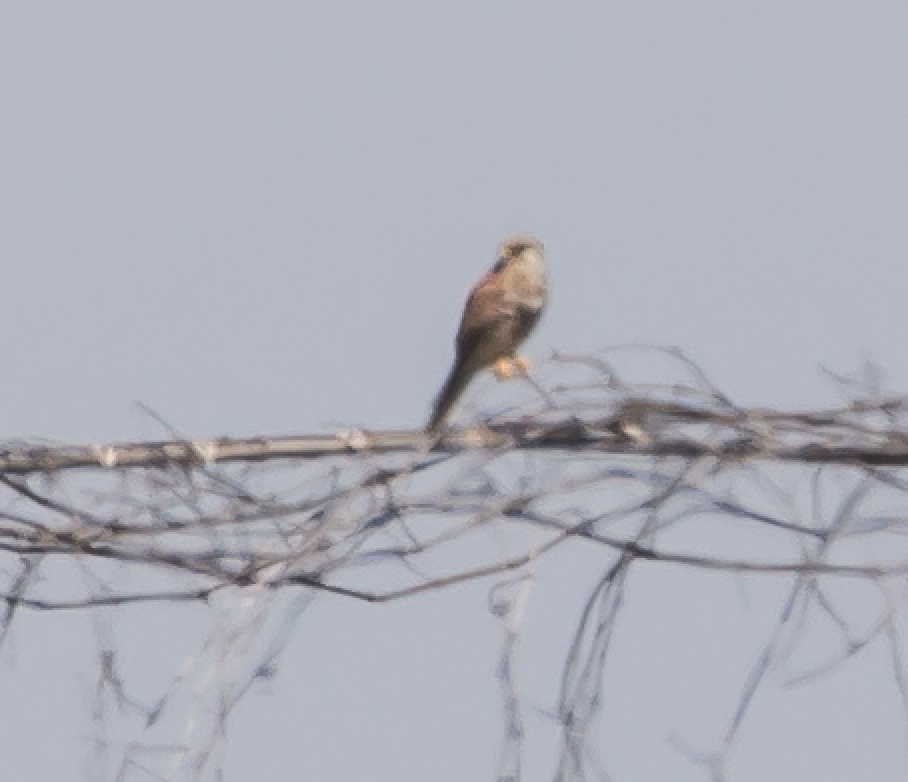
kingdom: Animalia
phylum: Chordata
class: Aves
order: Falconiformes
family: Falconidae
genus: Falco
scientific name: Falco tinnunculus
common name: Common kestrel
